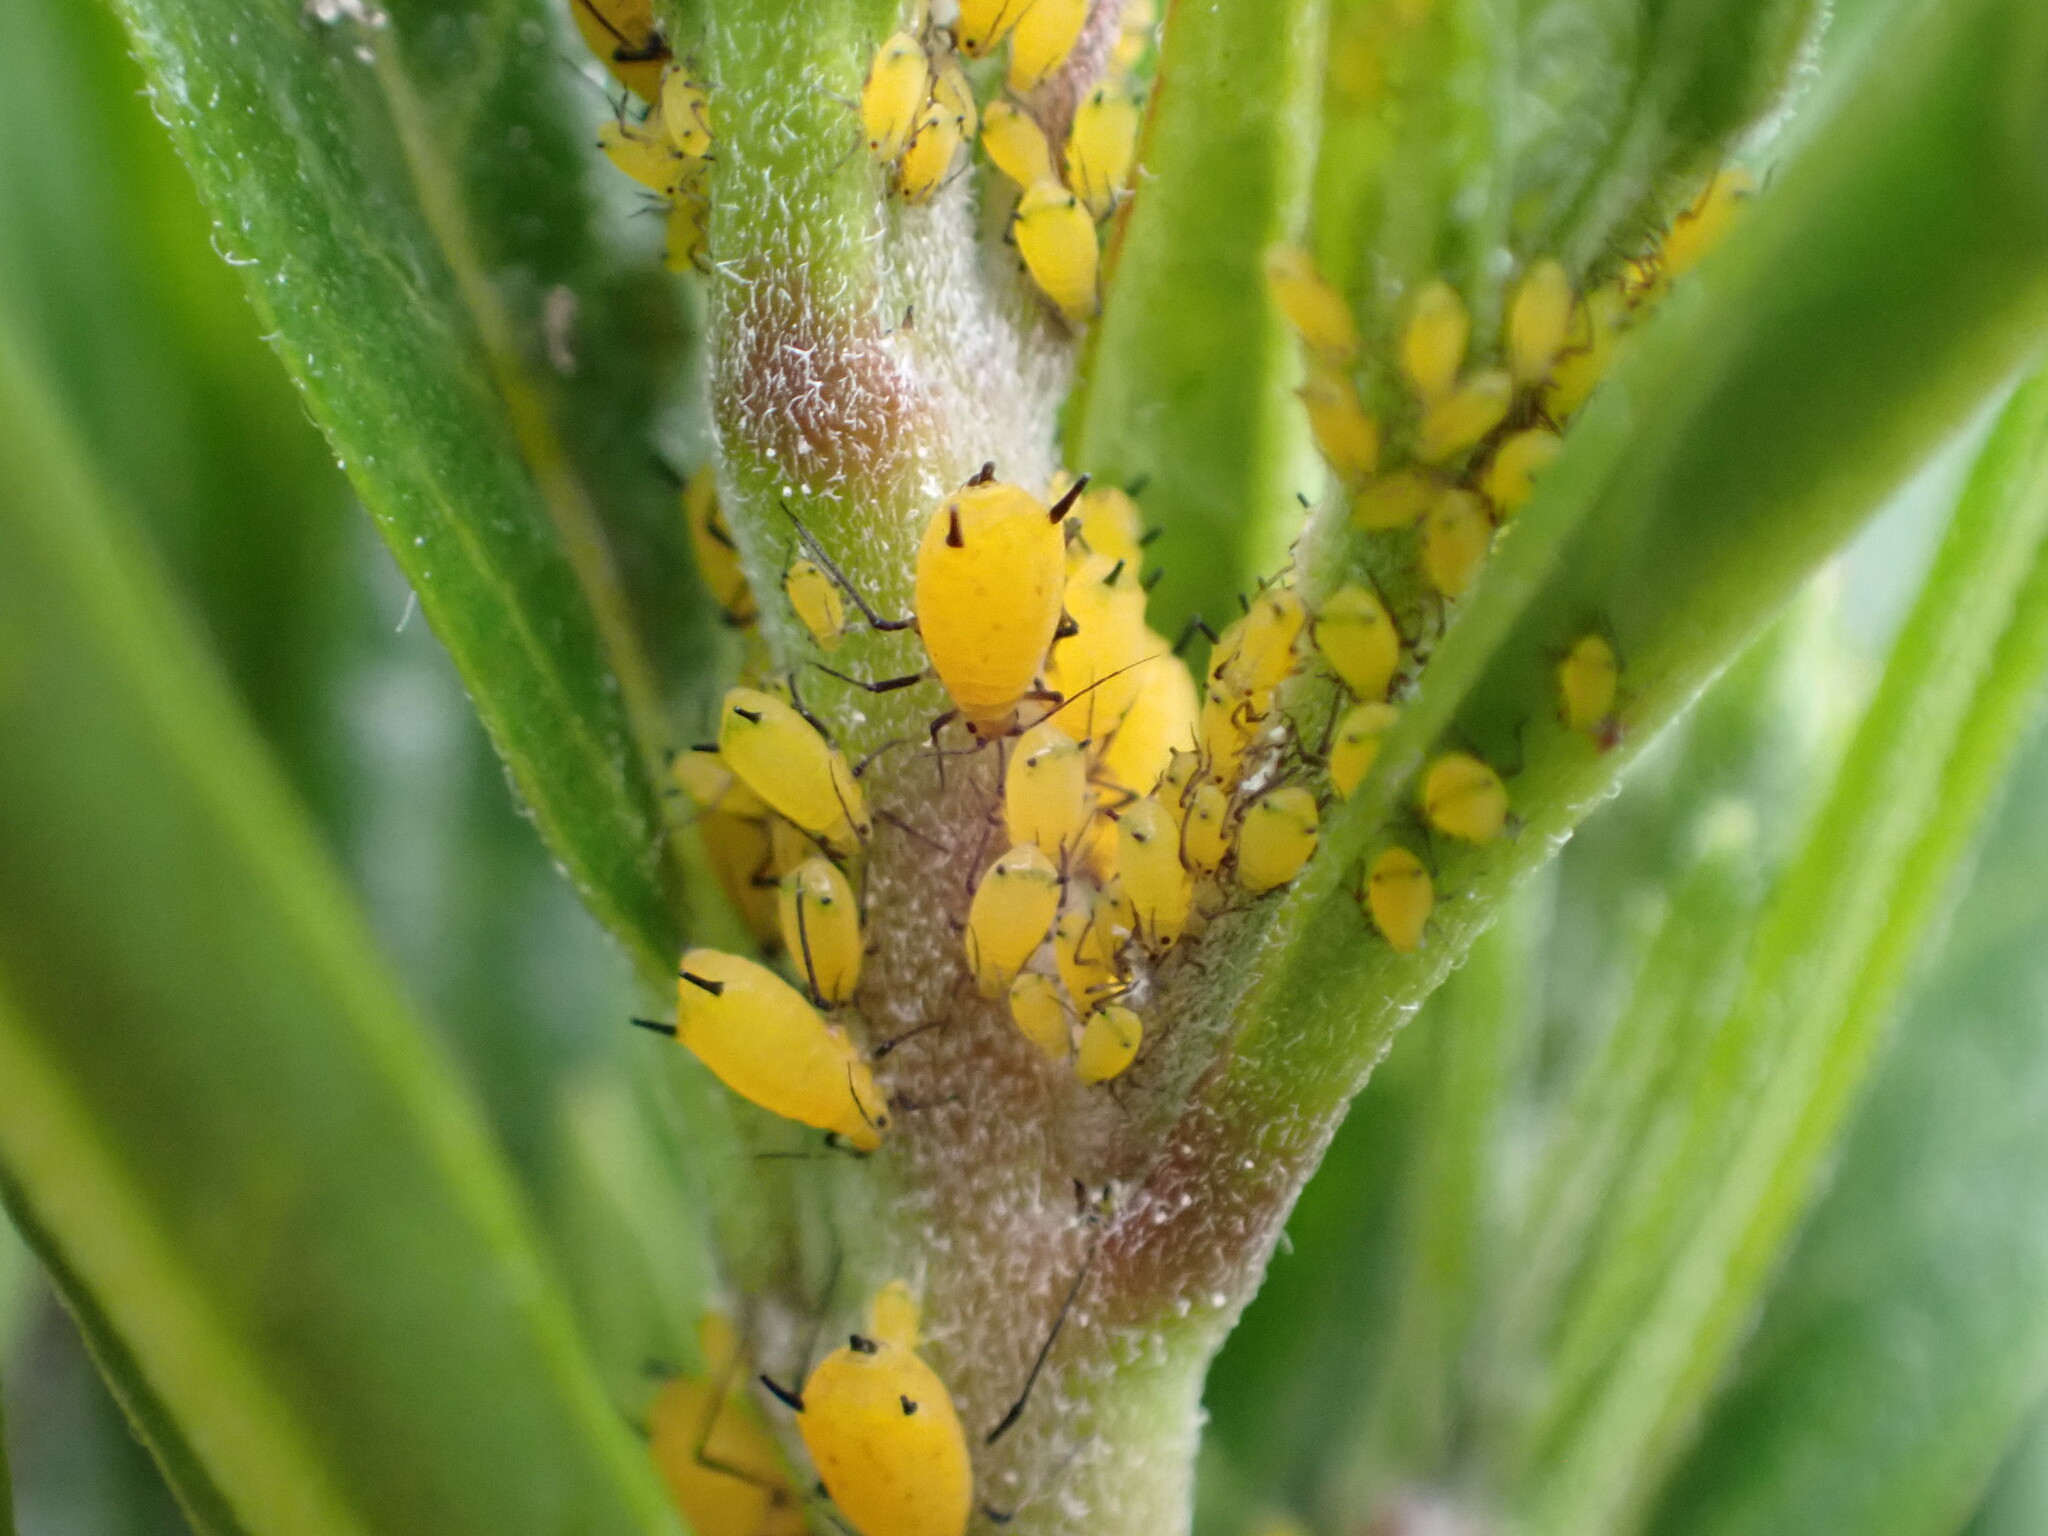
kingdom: Animalia
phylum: Arthropoda
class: Insecta
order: Hemiptera
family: Aphididae
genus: Aphis
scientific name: Aphis nerii
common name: Oleander aphid
